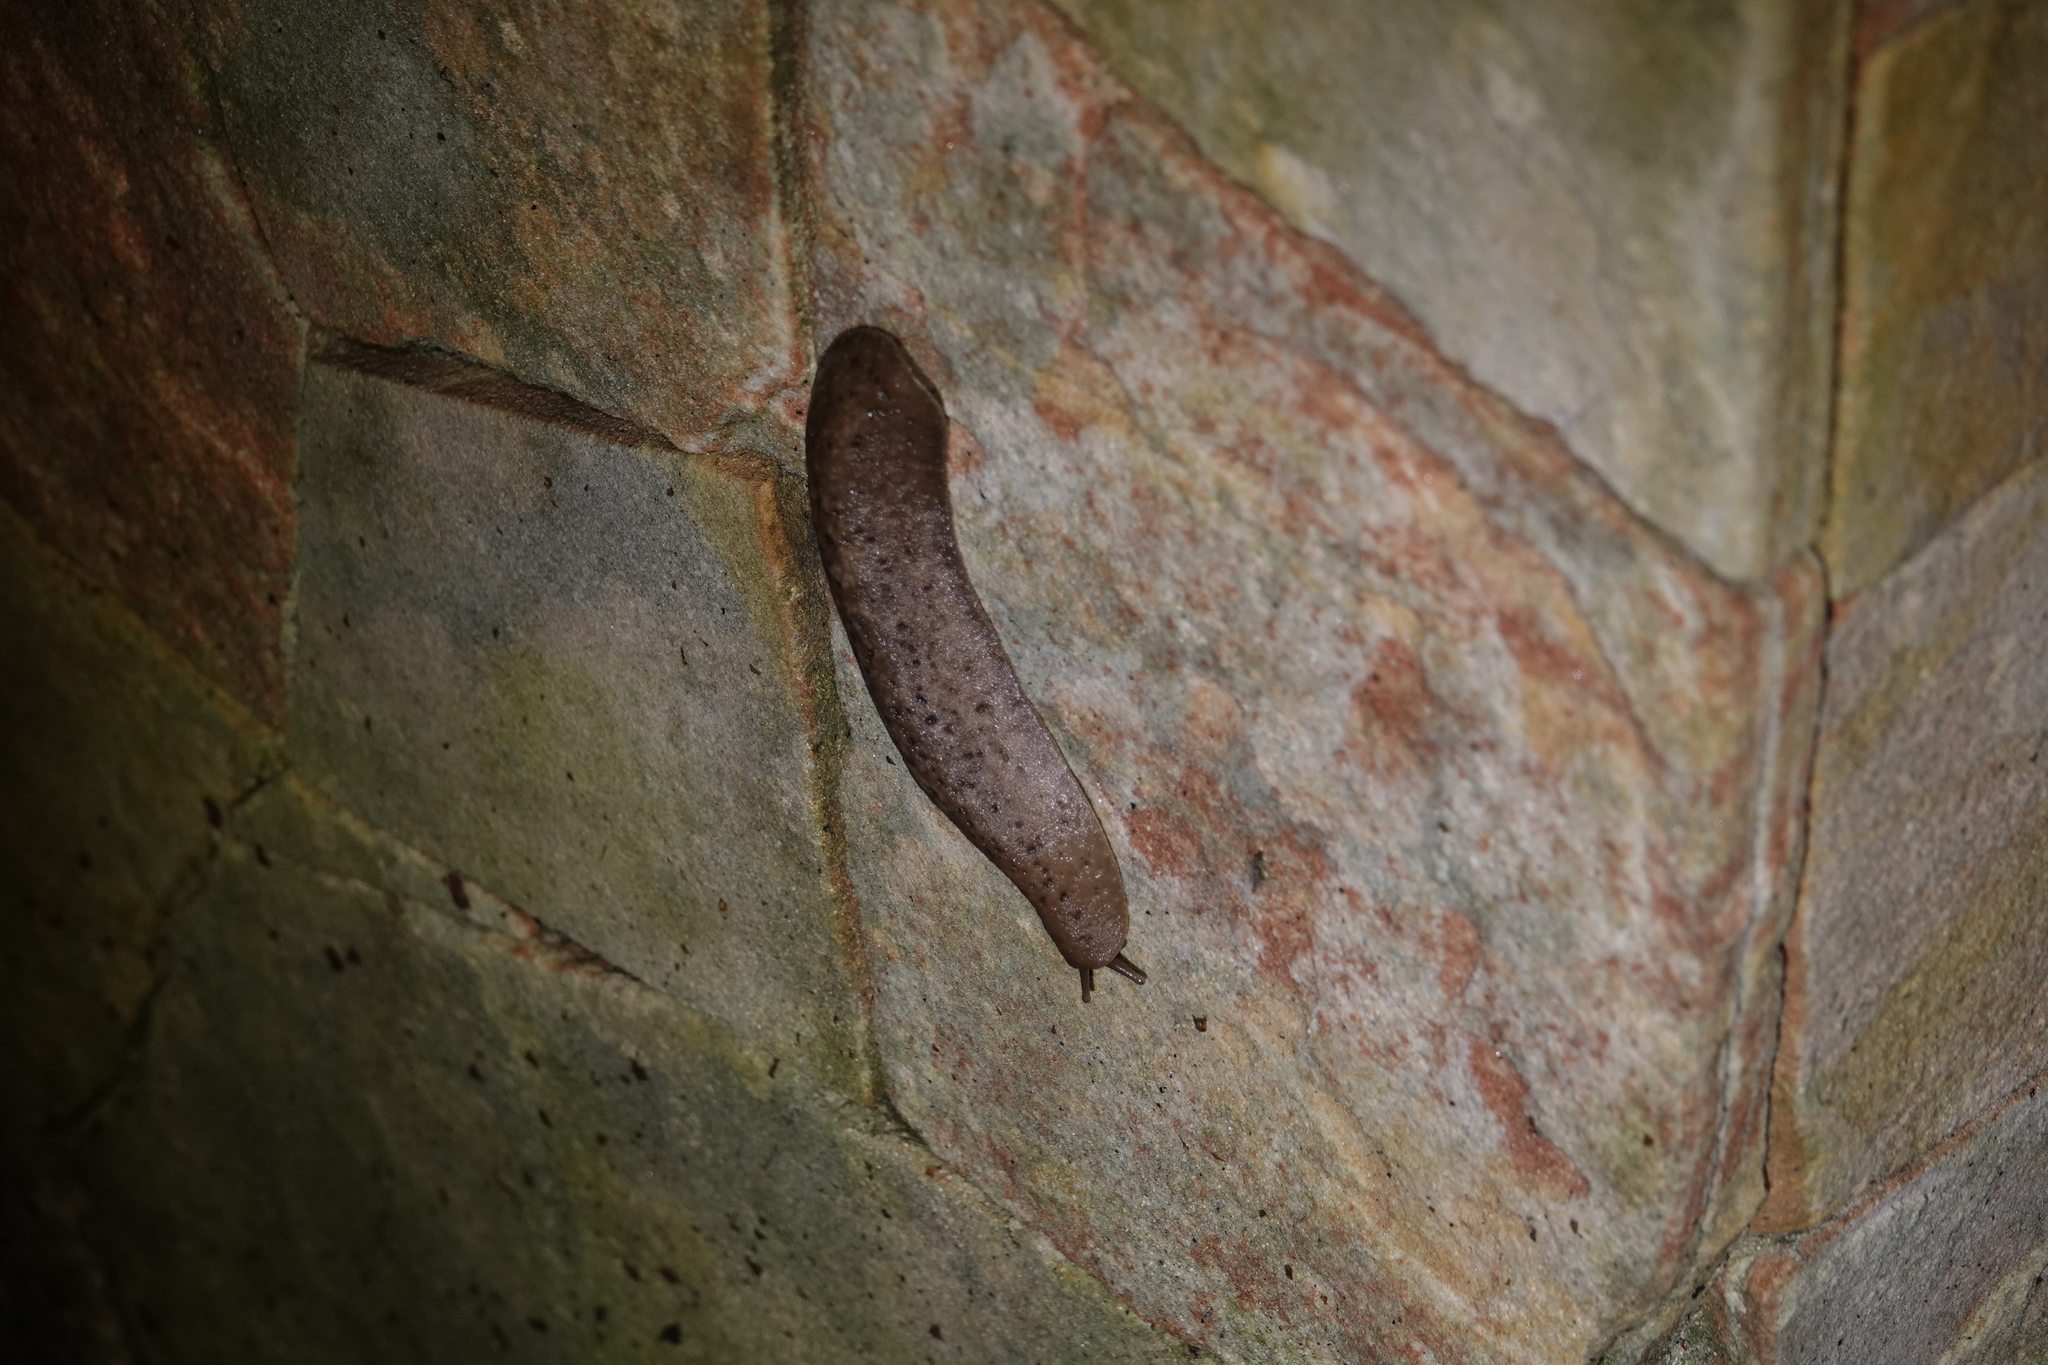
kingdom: Animalia
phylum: Mollusca
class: Gastropoda
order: Systellommatophora
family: Veronicellidae
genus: Phyllocaulis
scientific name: Phyllocaulis variegatus
